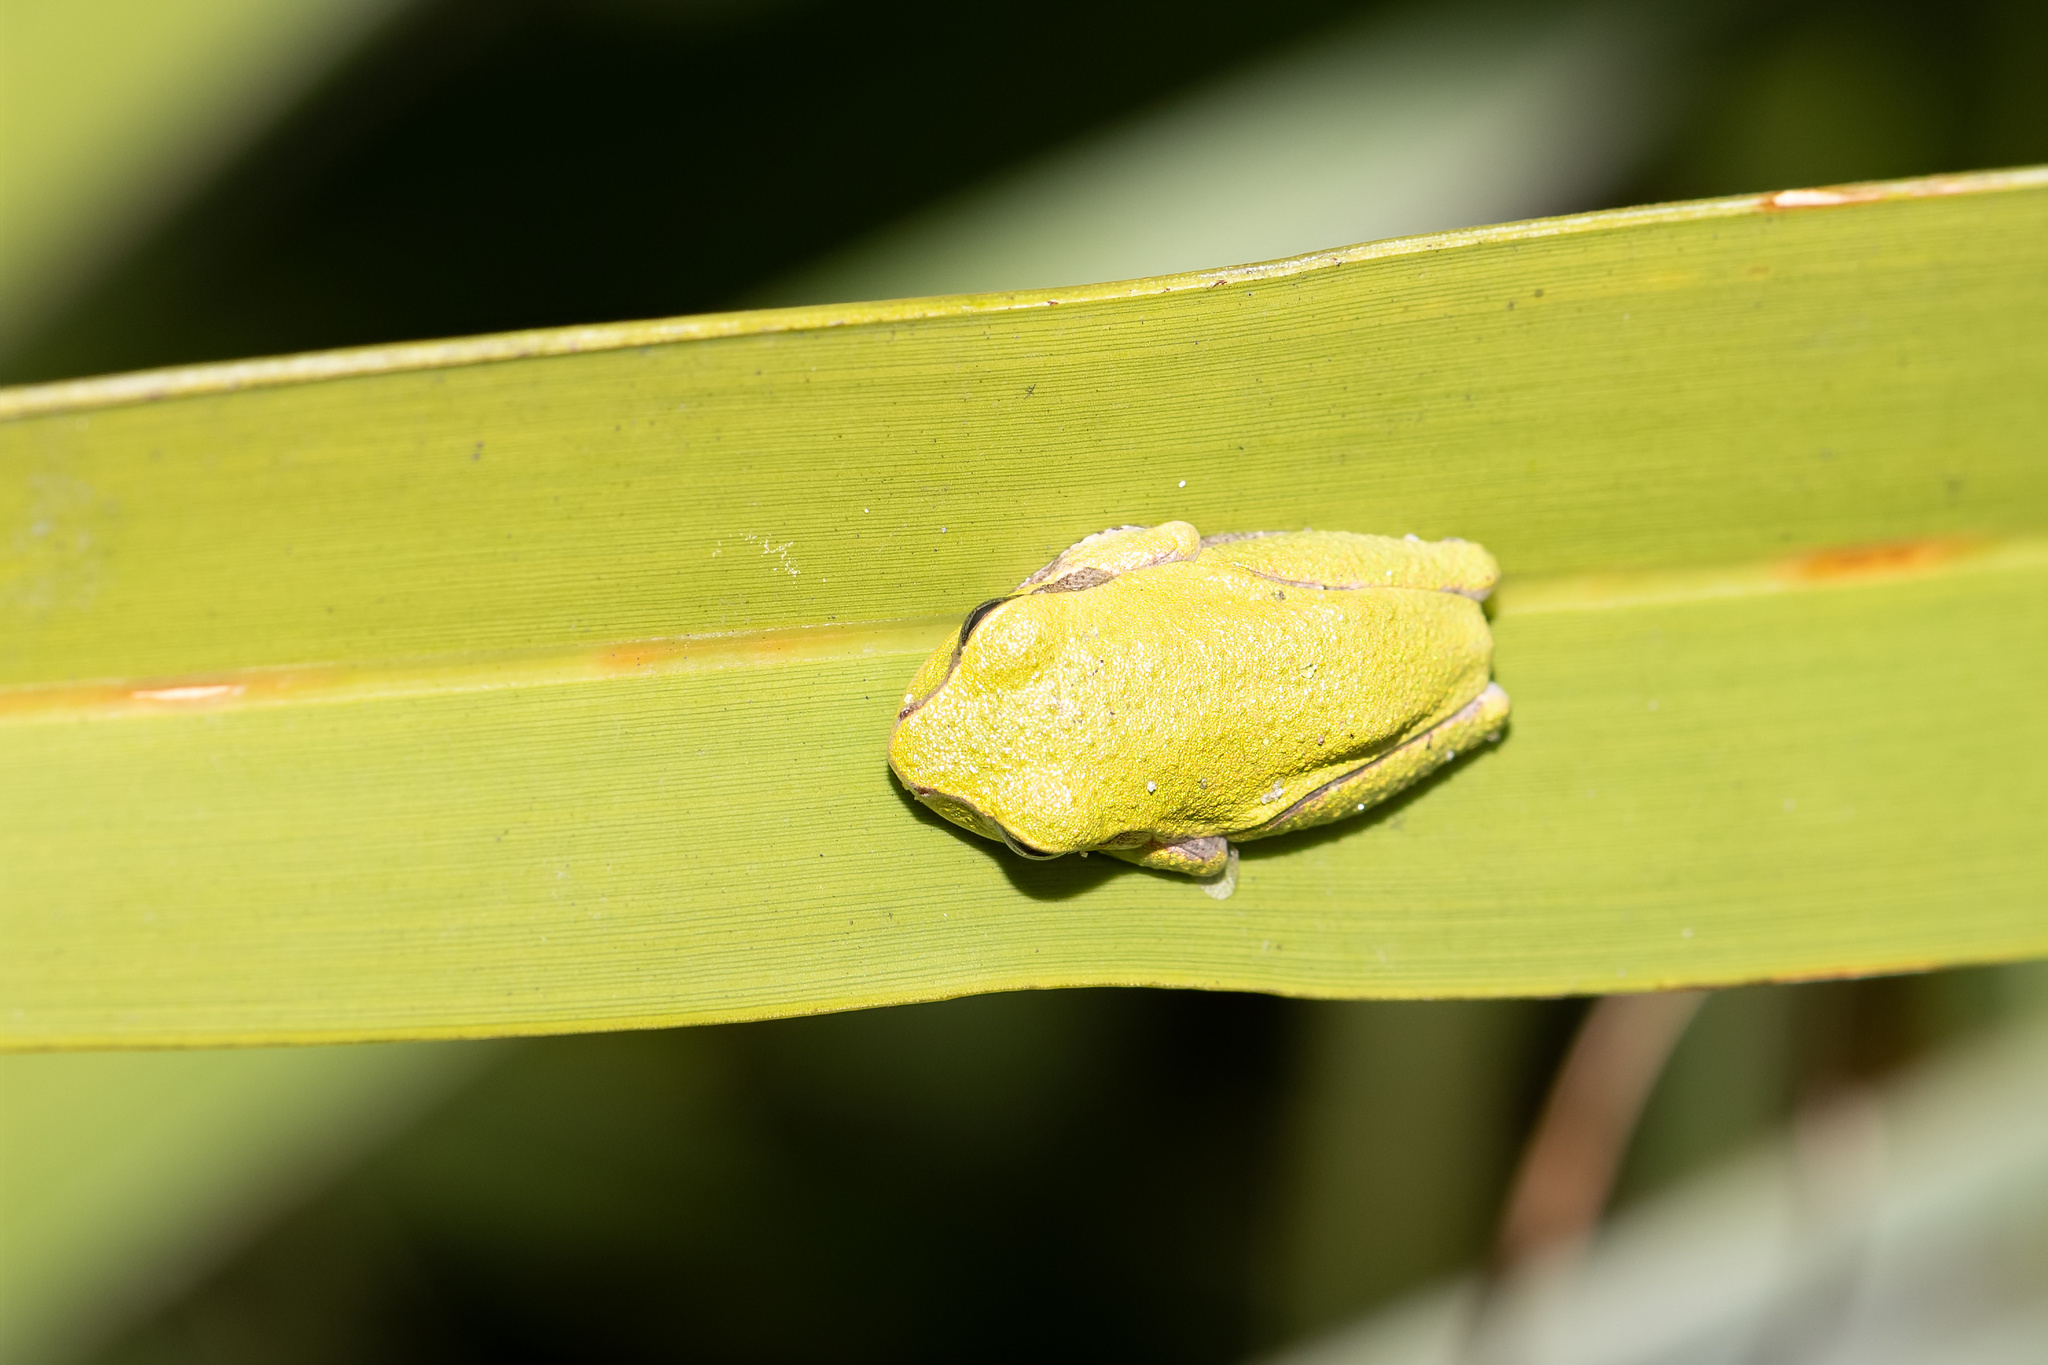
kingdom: Animalia
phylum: Chordata
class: Amphibia
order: Anura
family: Hylidae
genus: Hyla
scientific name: Hyla femoralis
